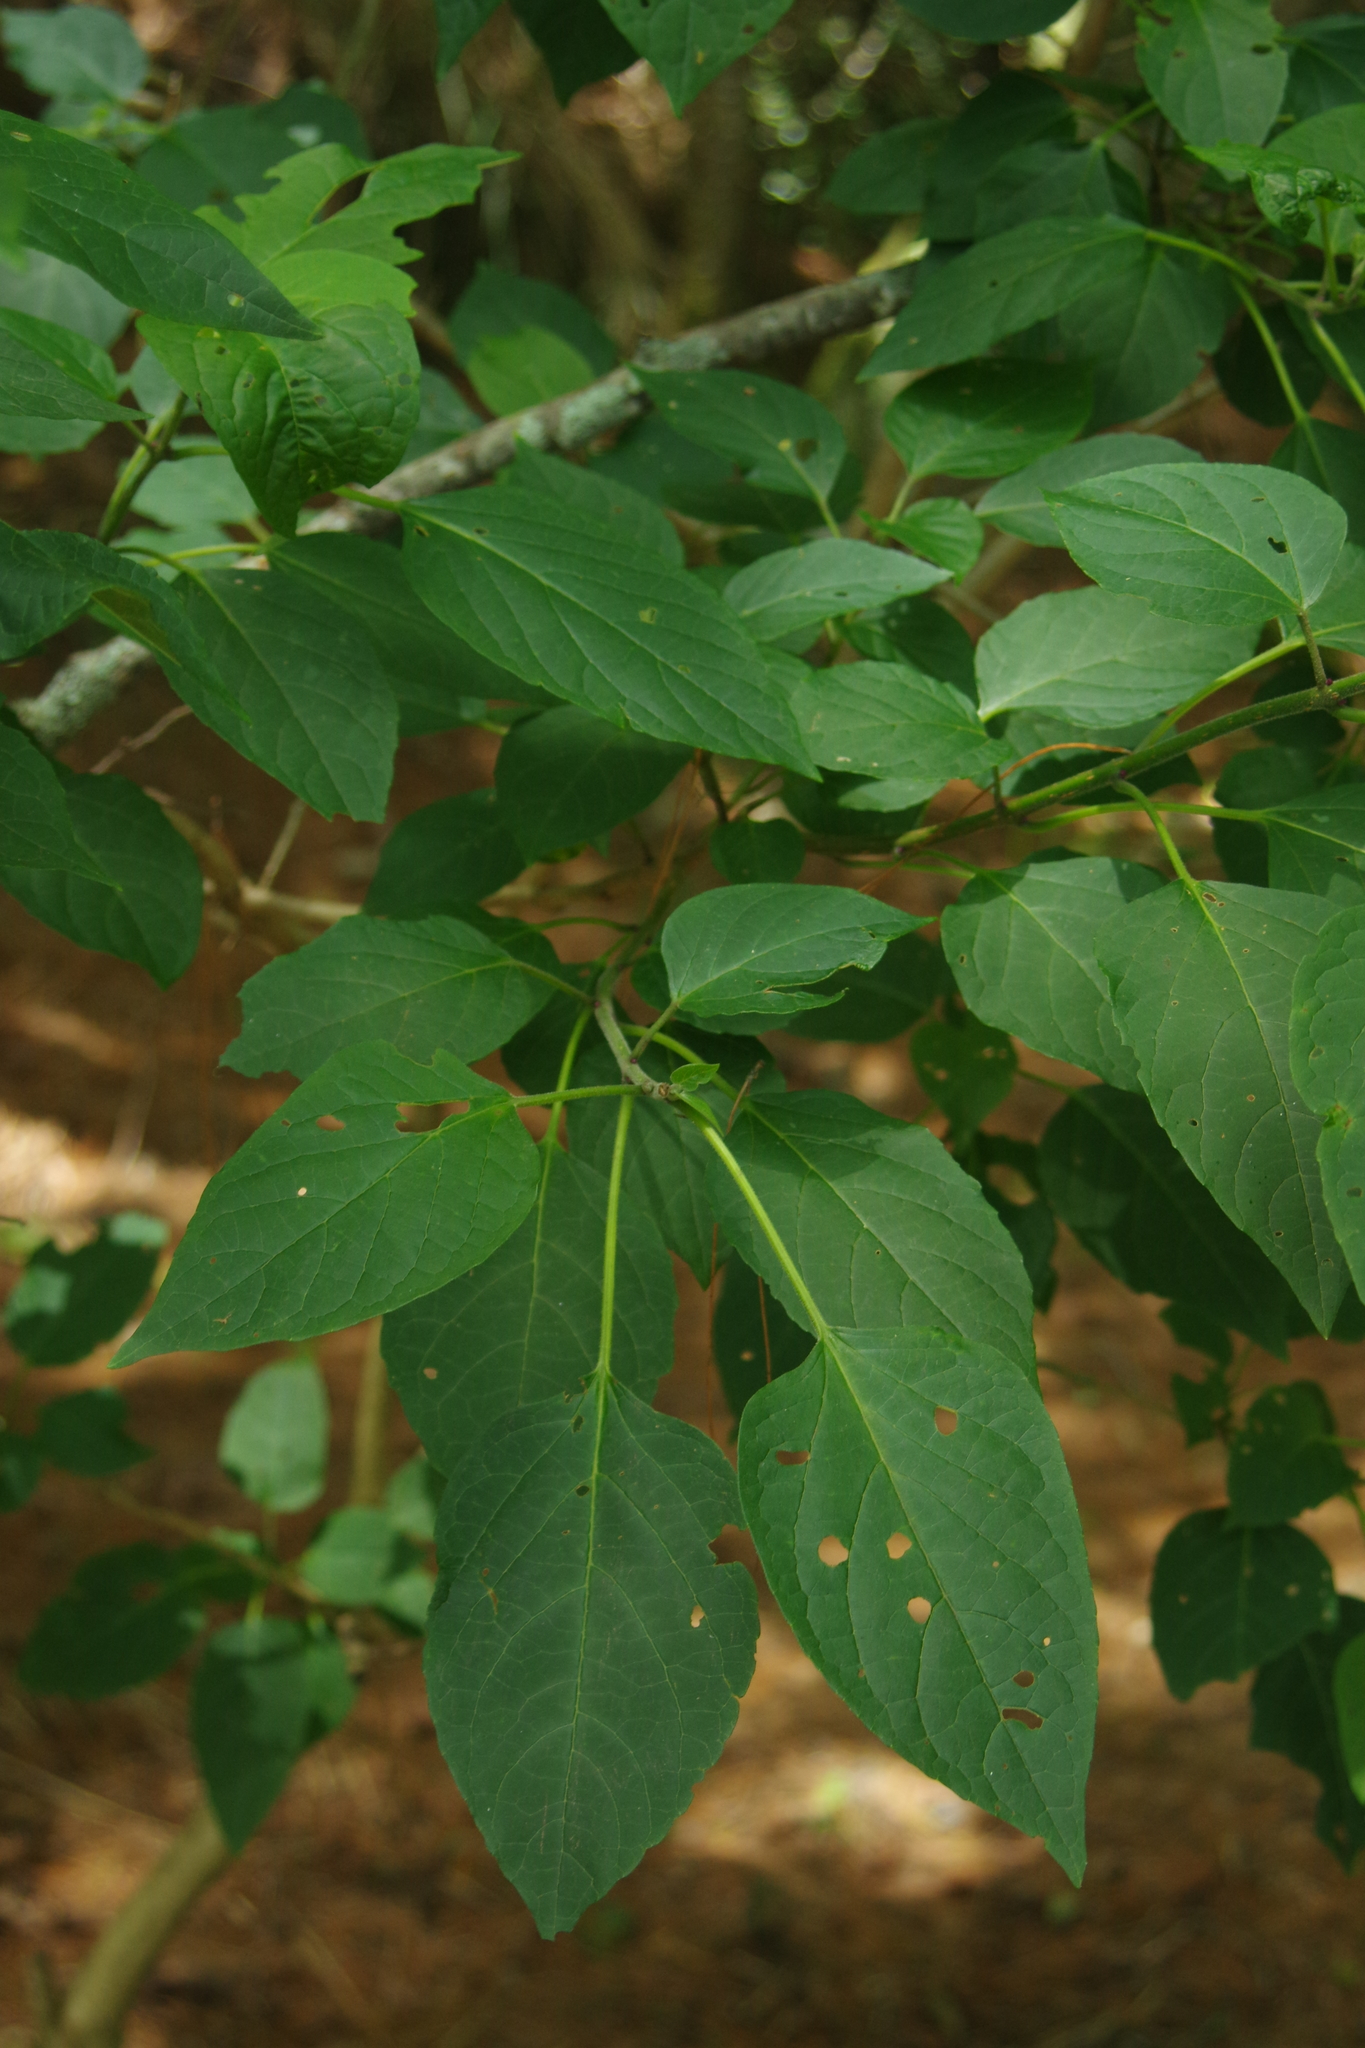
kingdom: Plantae
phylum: Tracheophyta
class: Magnoliopsida
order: Lamiales
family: Lamiaceae
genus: Clerodendrum
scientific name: Clerodendrum trichotomum
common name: Harlequin glorybower
